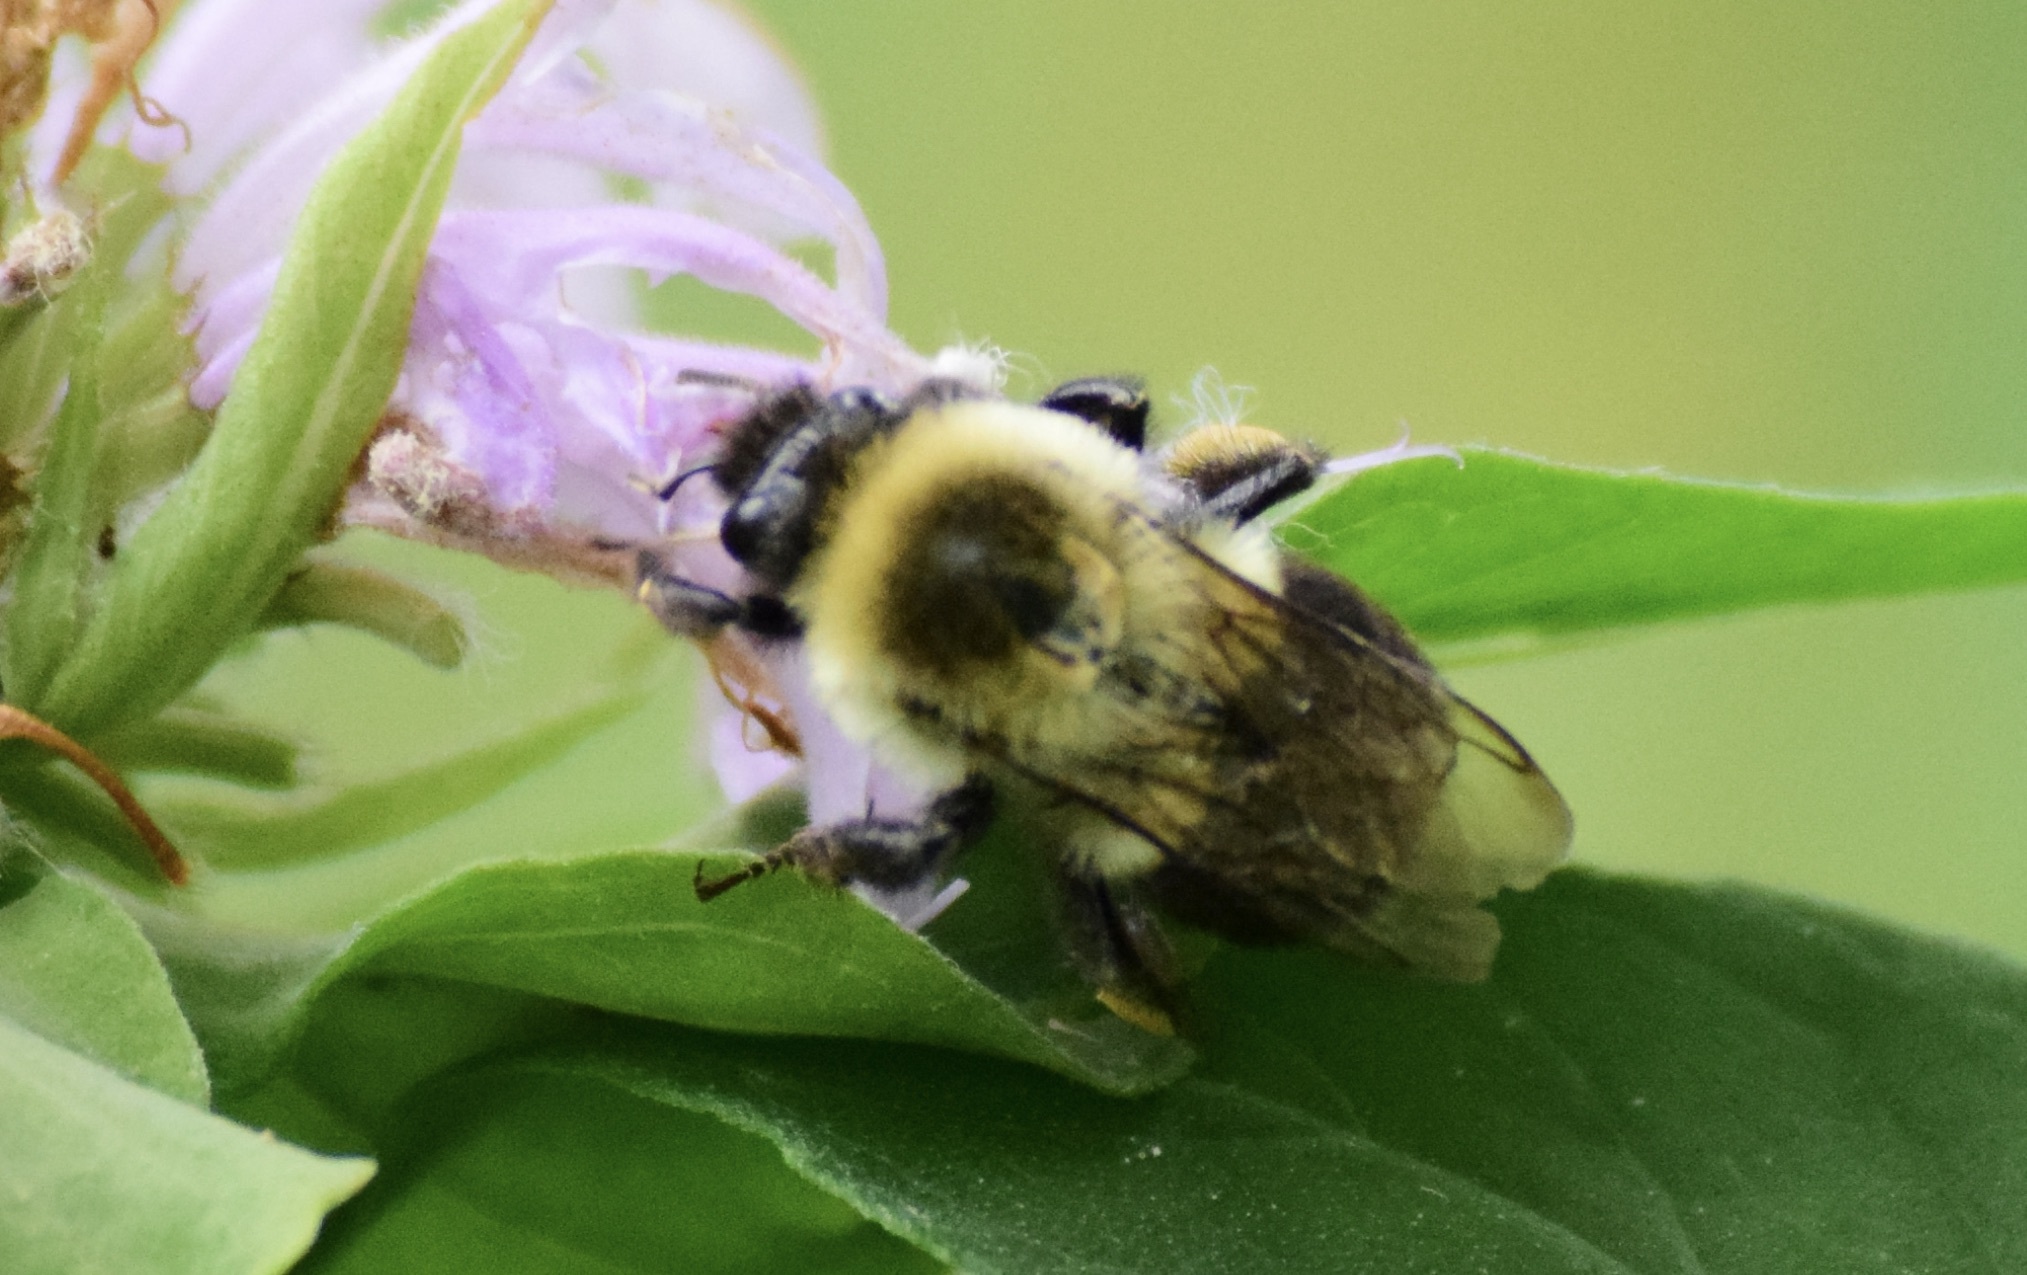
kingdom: Animalia
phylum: Arthropoda
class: Insecta
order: Hymenoptera
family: Apidae
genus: Bombus
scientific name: Bombus impatiens
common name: Common eastern bumble bee
